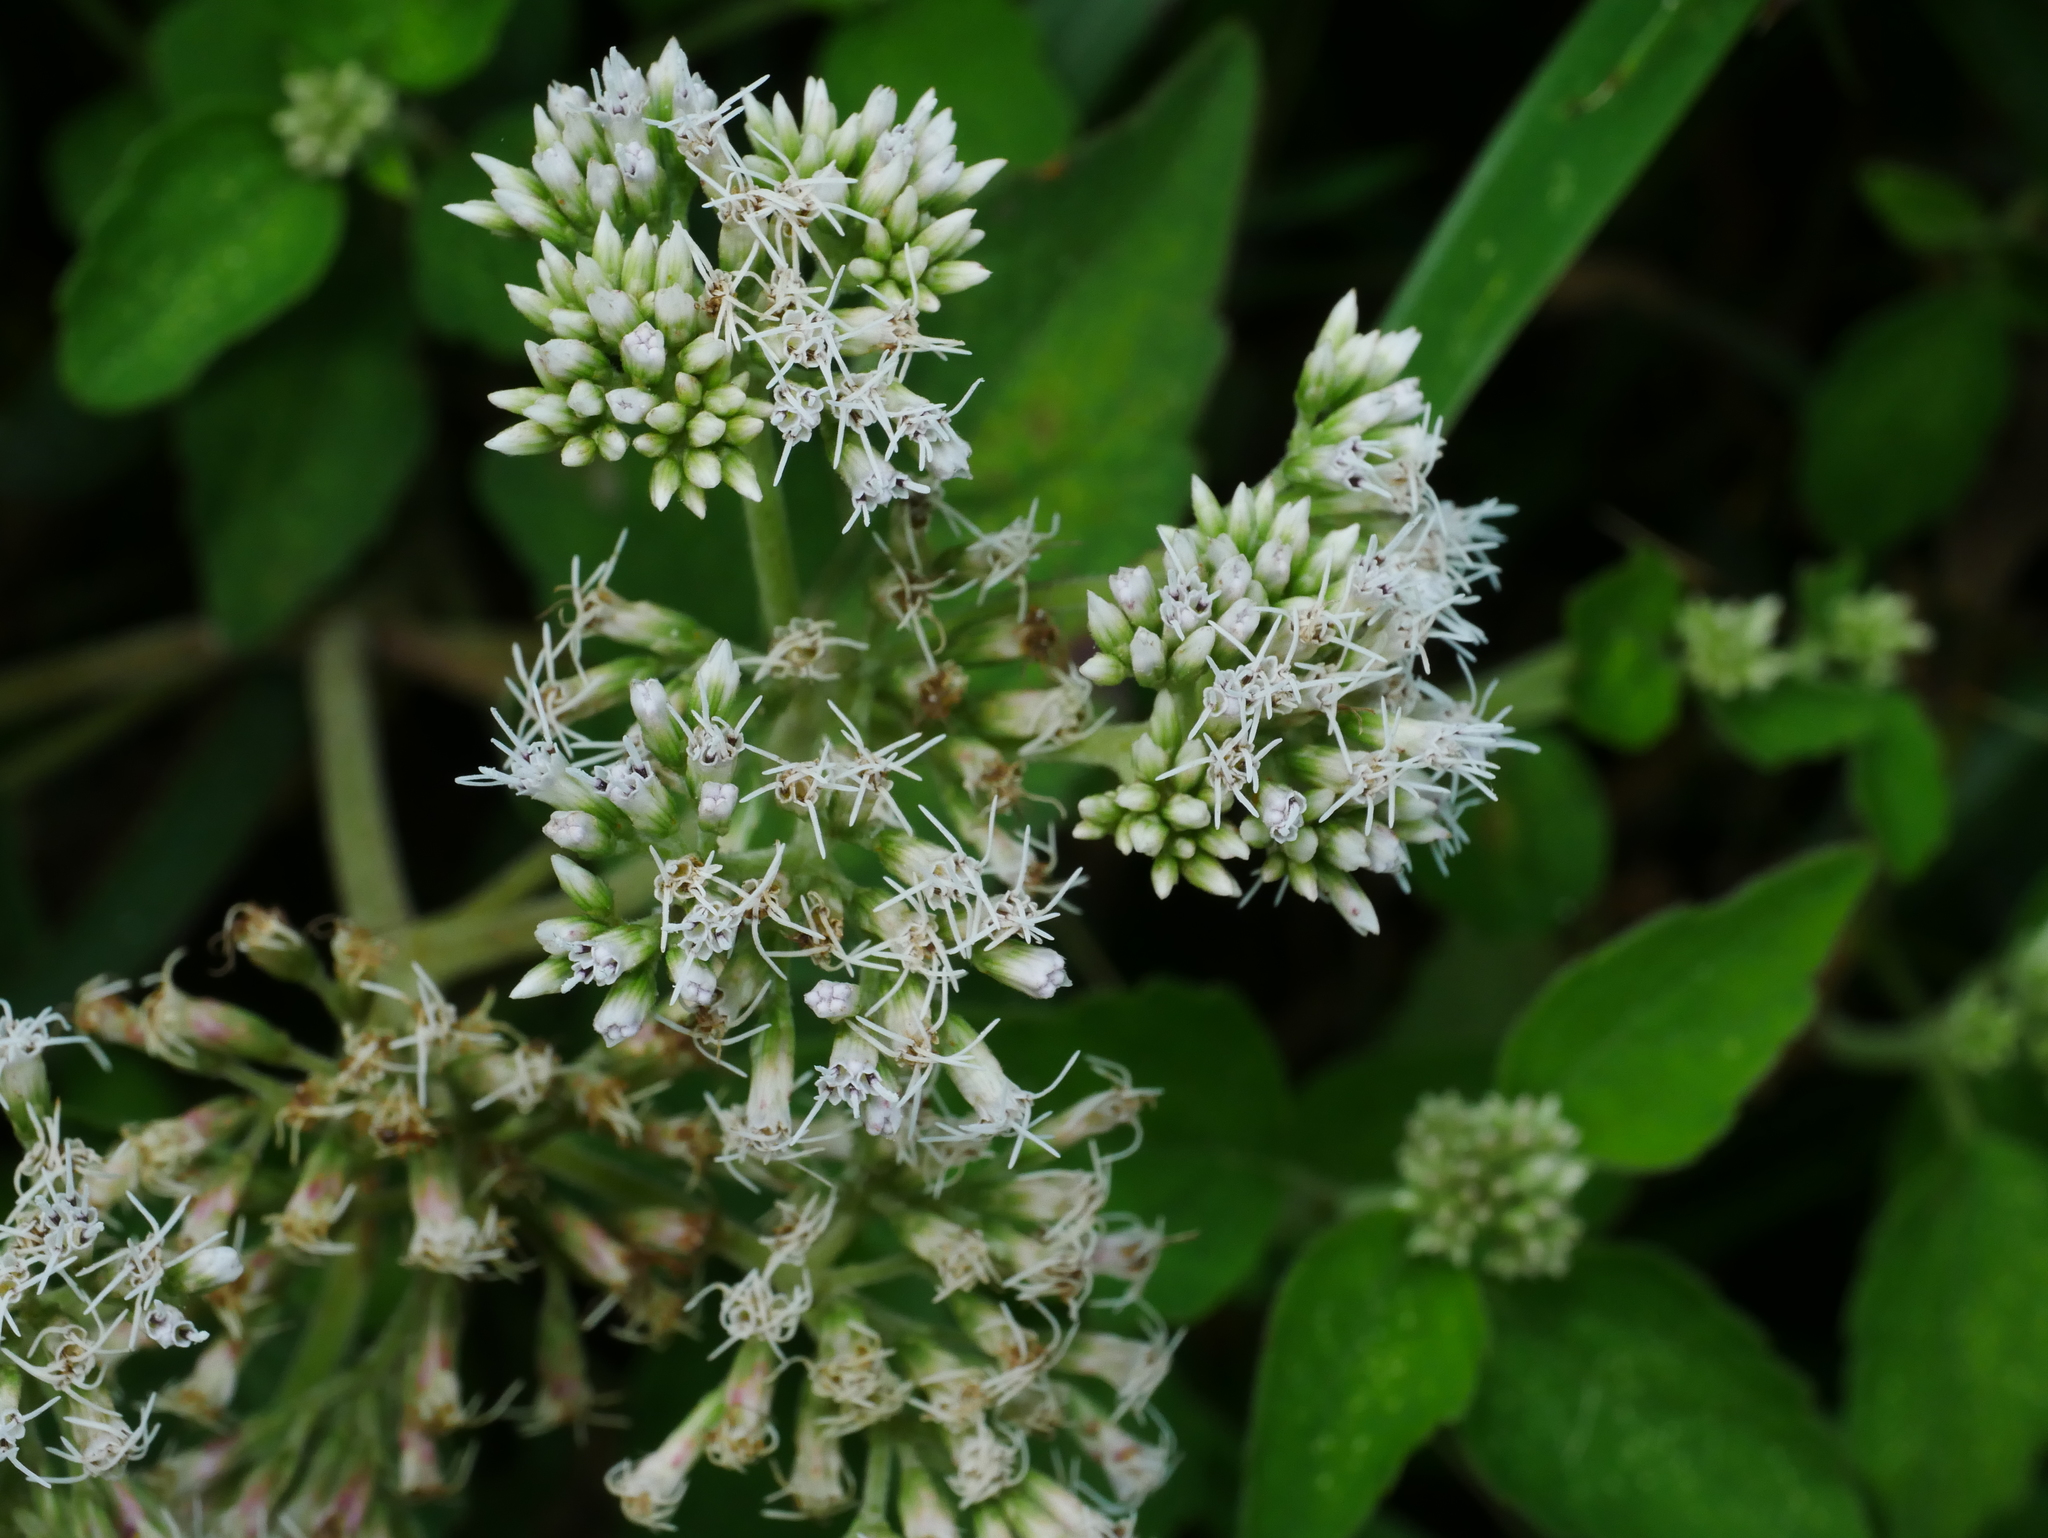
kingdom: Plantae
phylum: Tracheophyta
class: Magnoliopsida
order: Asterales
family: Asteraceae
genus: Eupatorium
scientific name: Eupatorium formosanum
